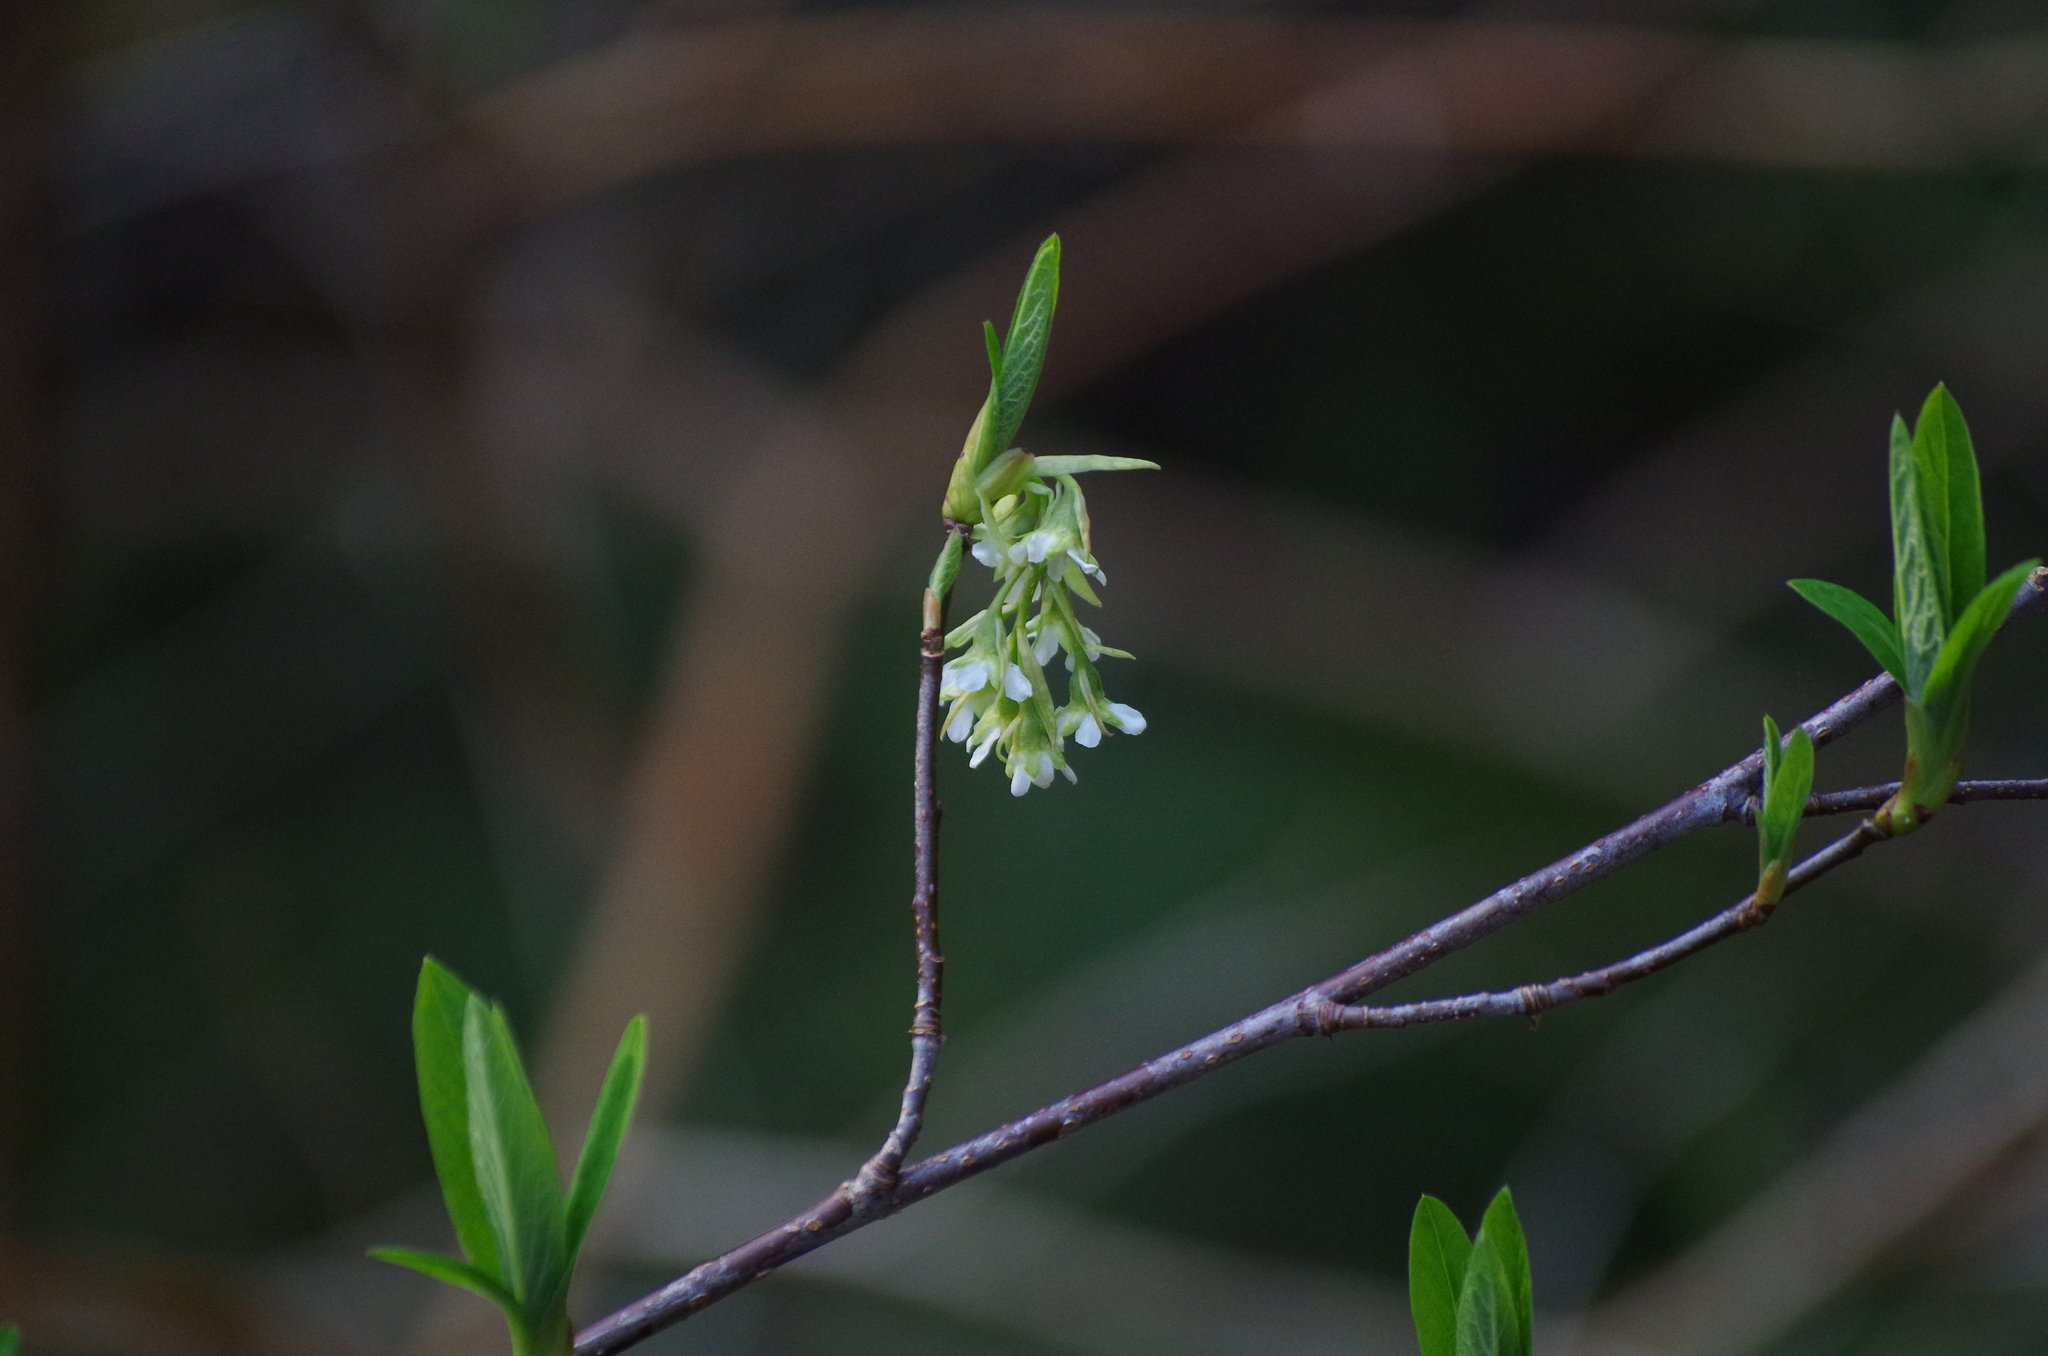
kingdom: Plantae
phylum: Tracheophyta
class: Magnoliopsida
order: Rosales
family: Rosaceae
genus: Oemleria
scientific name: Oemleria cerasiformis
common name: Osoberry
